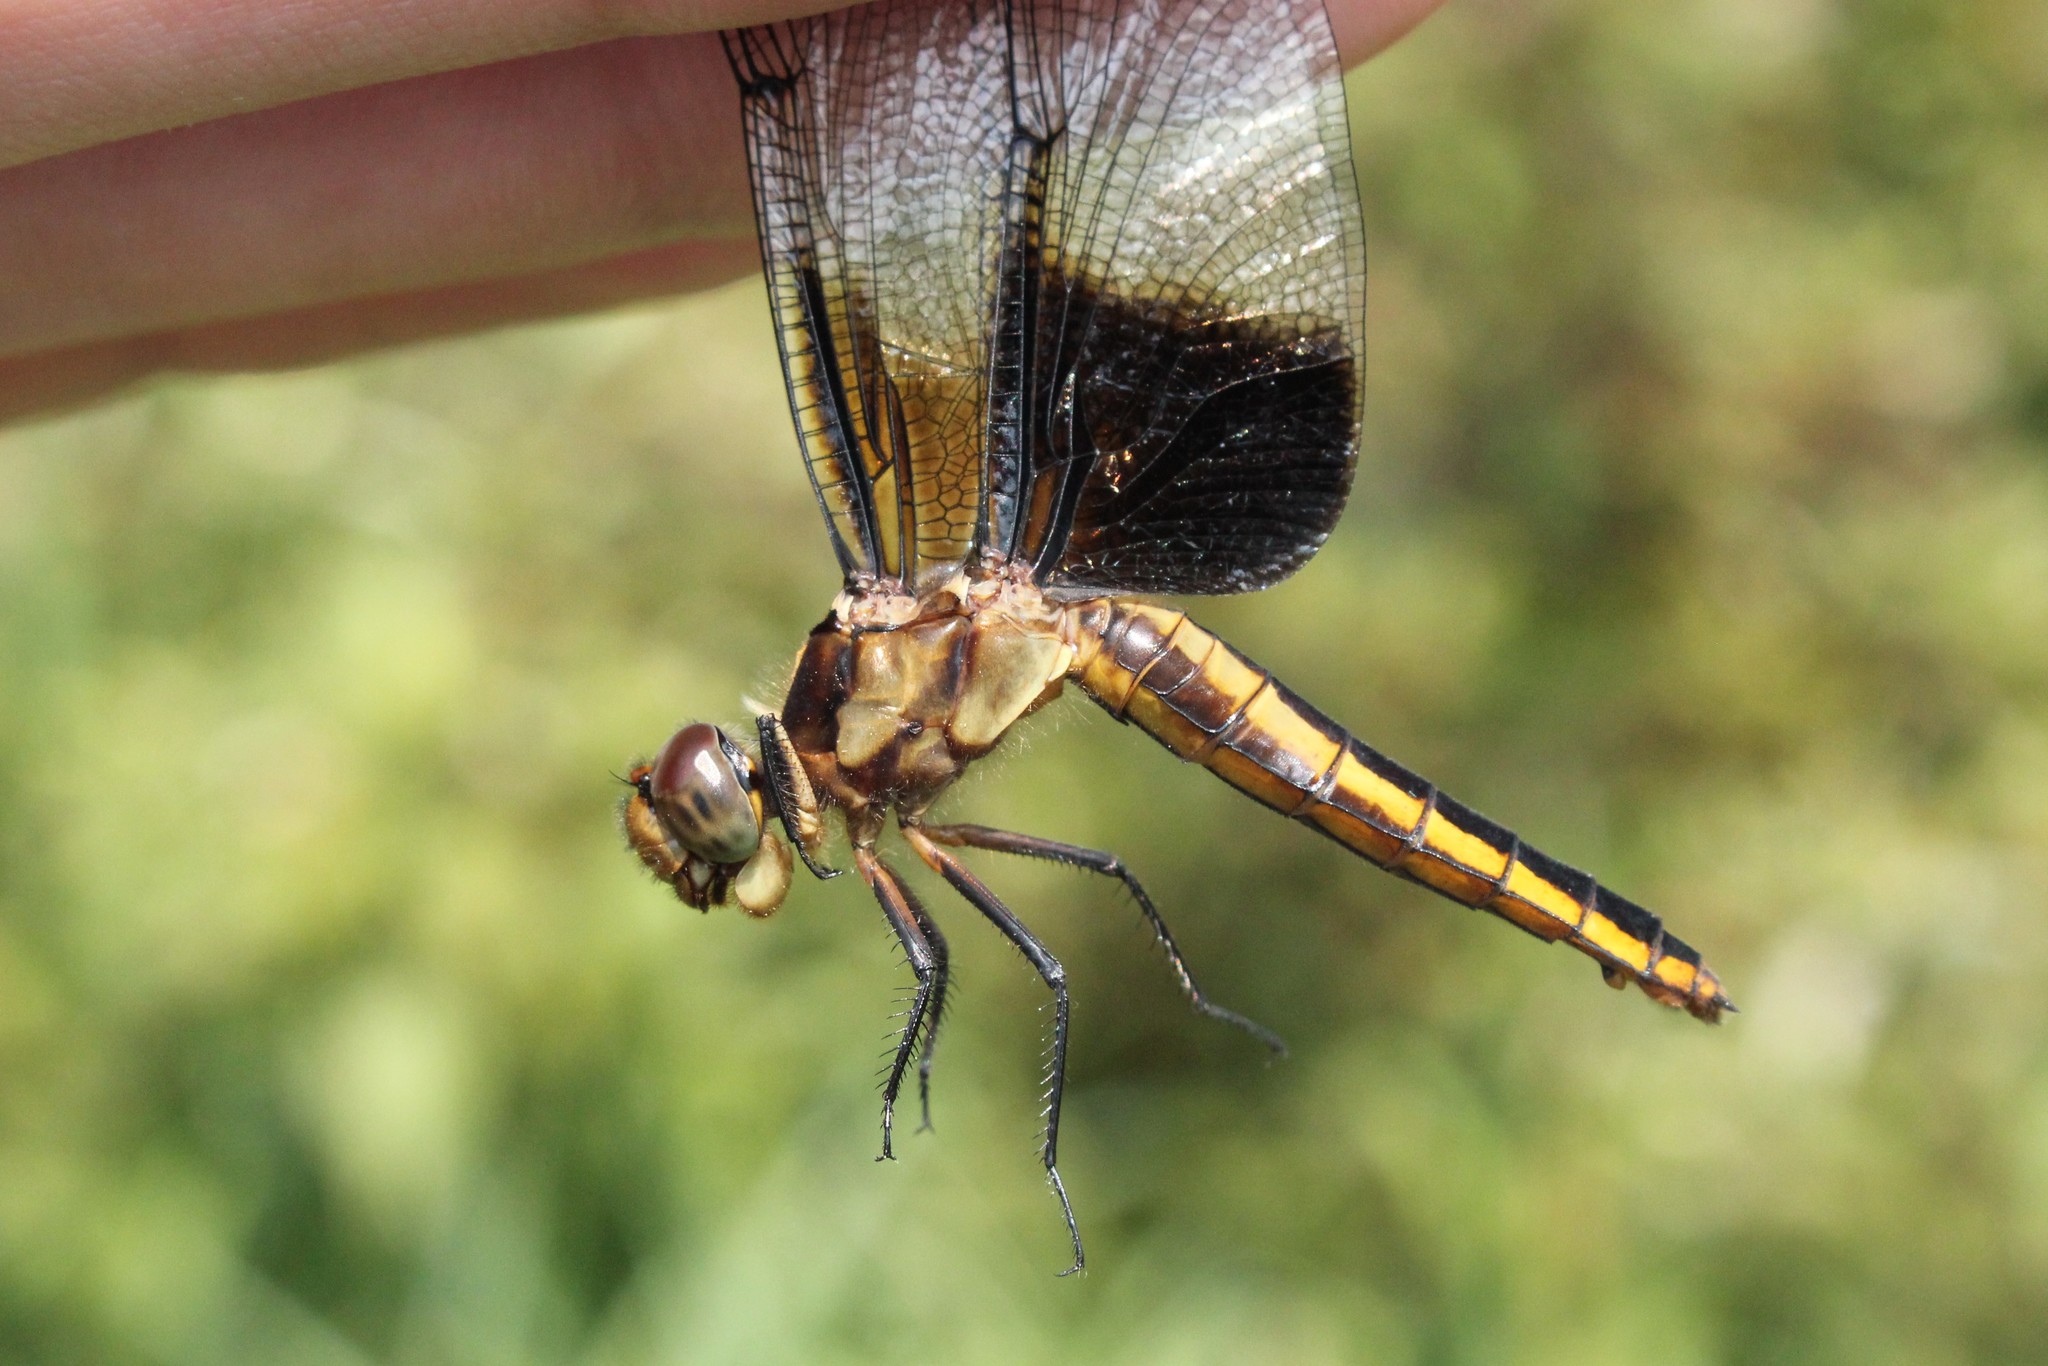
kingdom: Animalia
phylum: Arthropoda
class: Insecta
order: Odonata
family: Libellulidae
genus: Libellula
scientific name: Libellula luctuosa
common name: Widow skimmer
